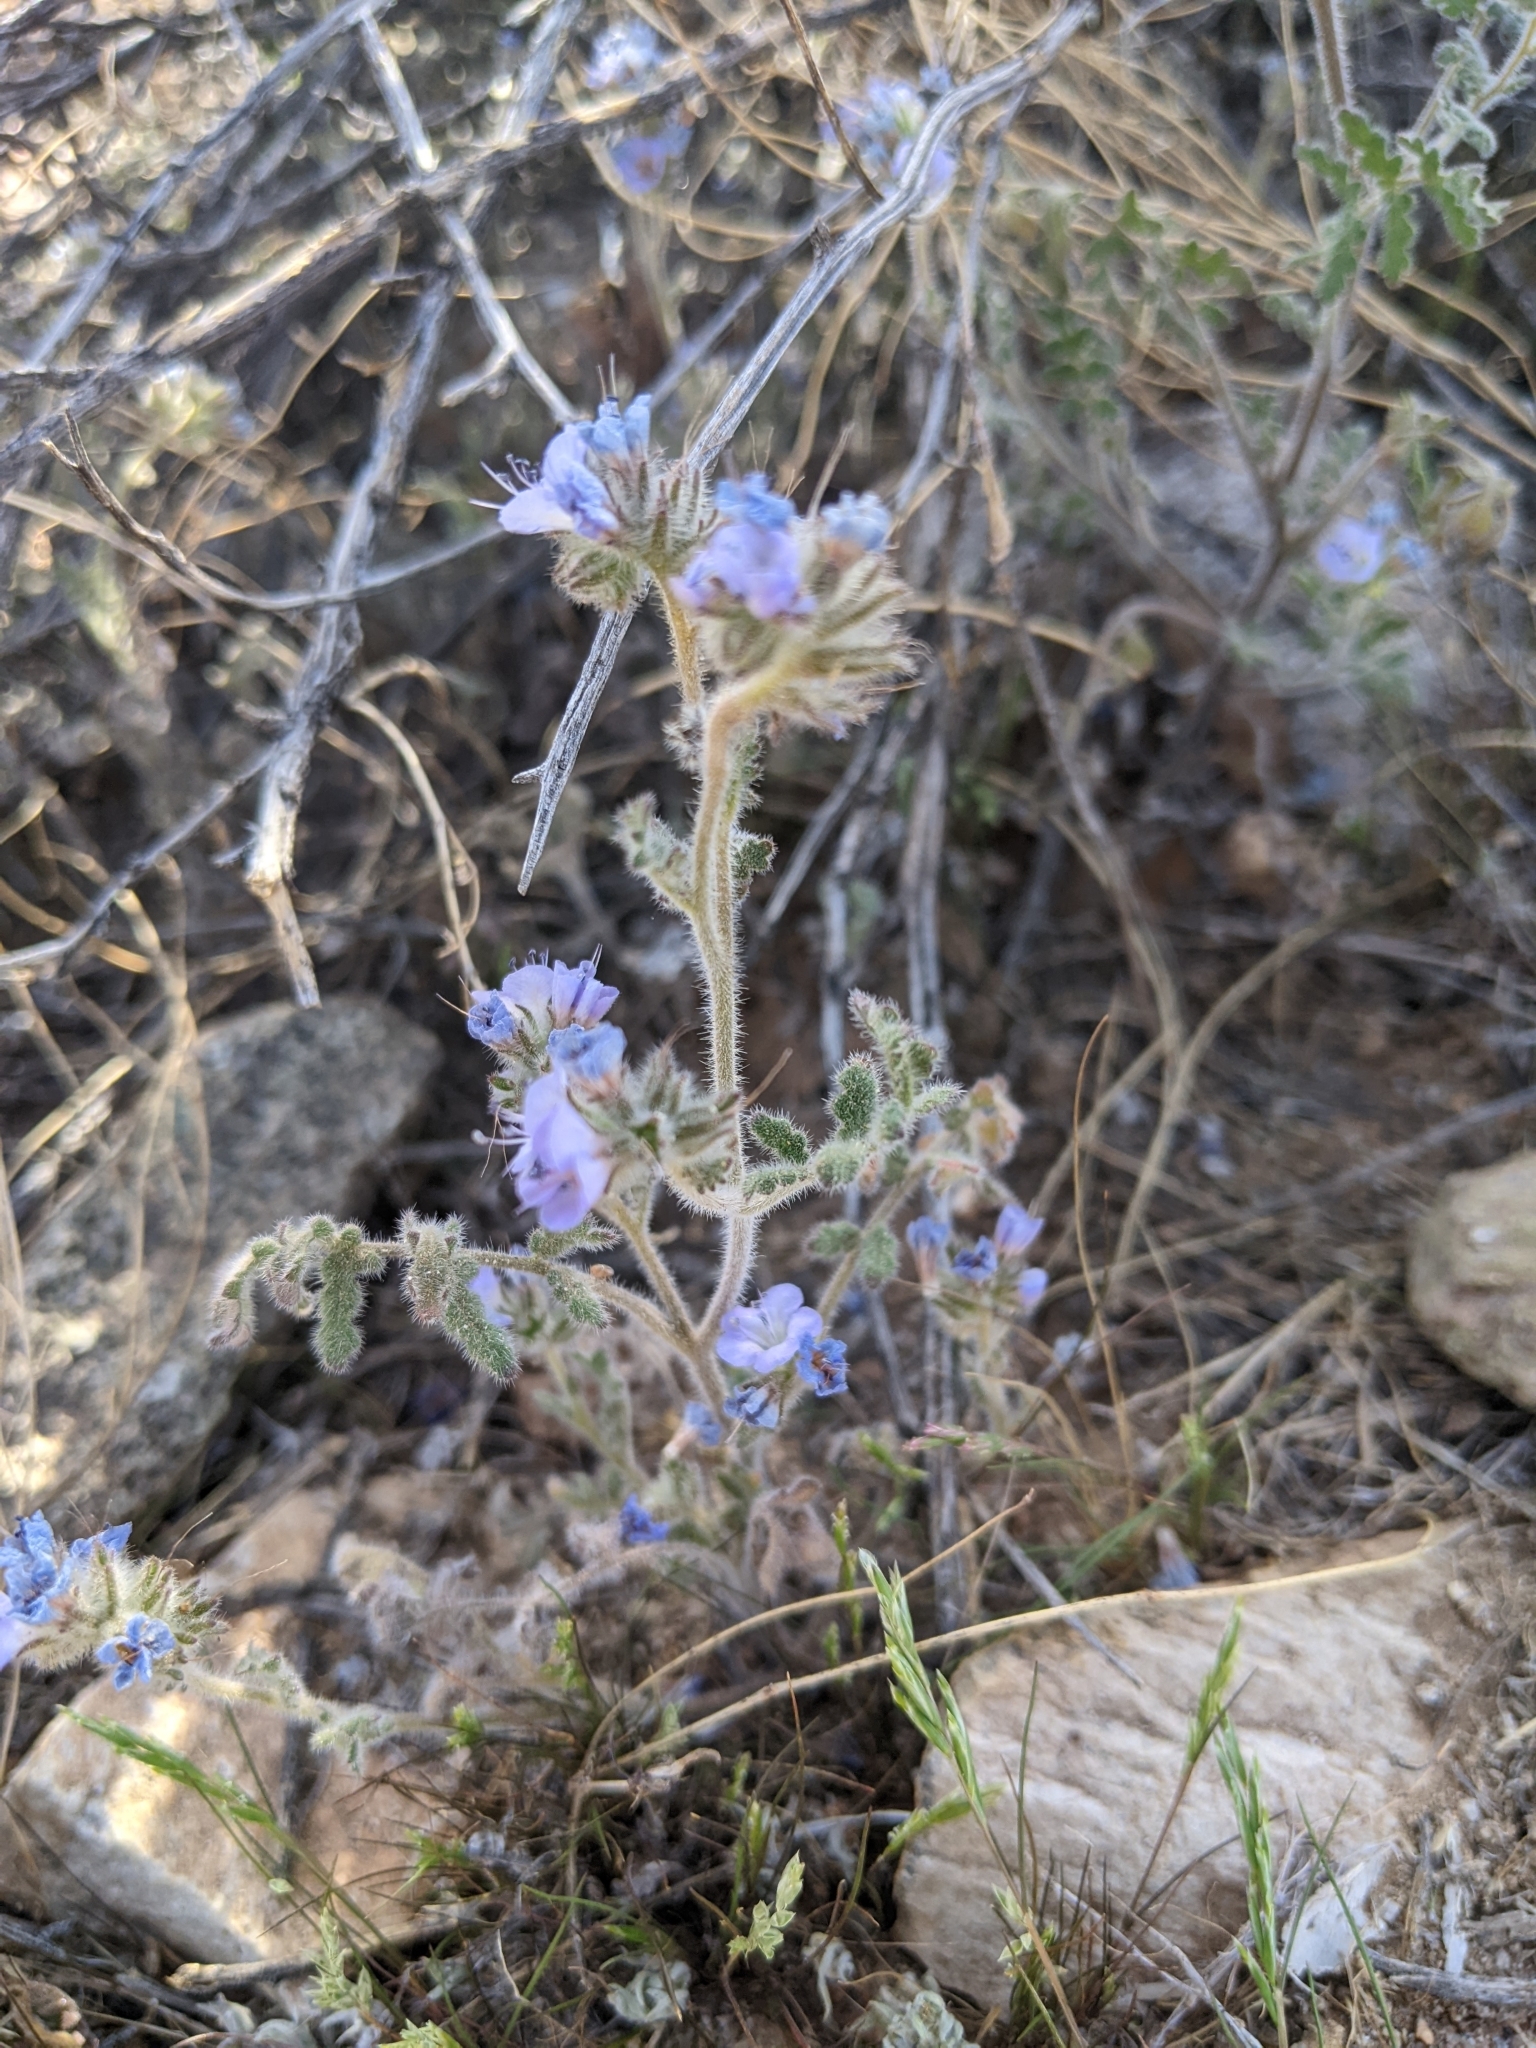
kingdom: Plantae
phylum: Tracheophyta
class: Magnoliopsida
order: Boraginales
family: Hydrophyllaceae
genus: Phacelia
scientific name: Phacelia distans
